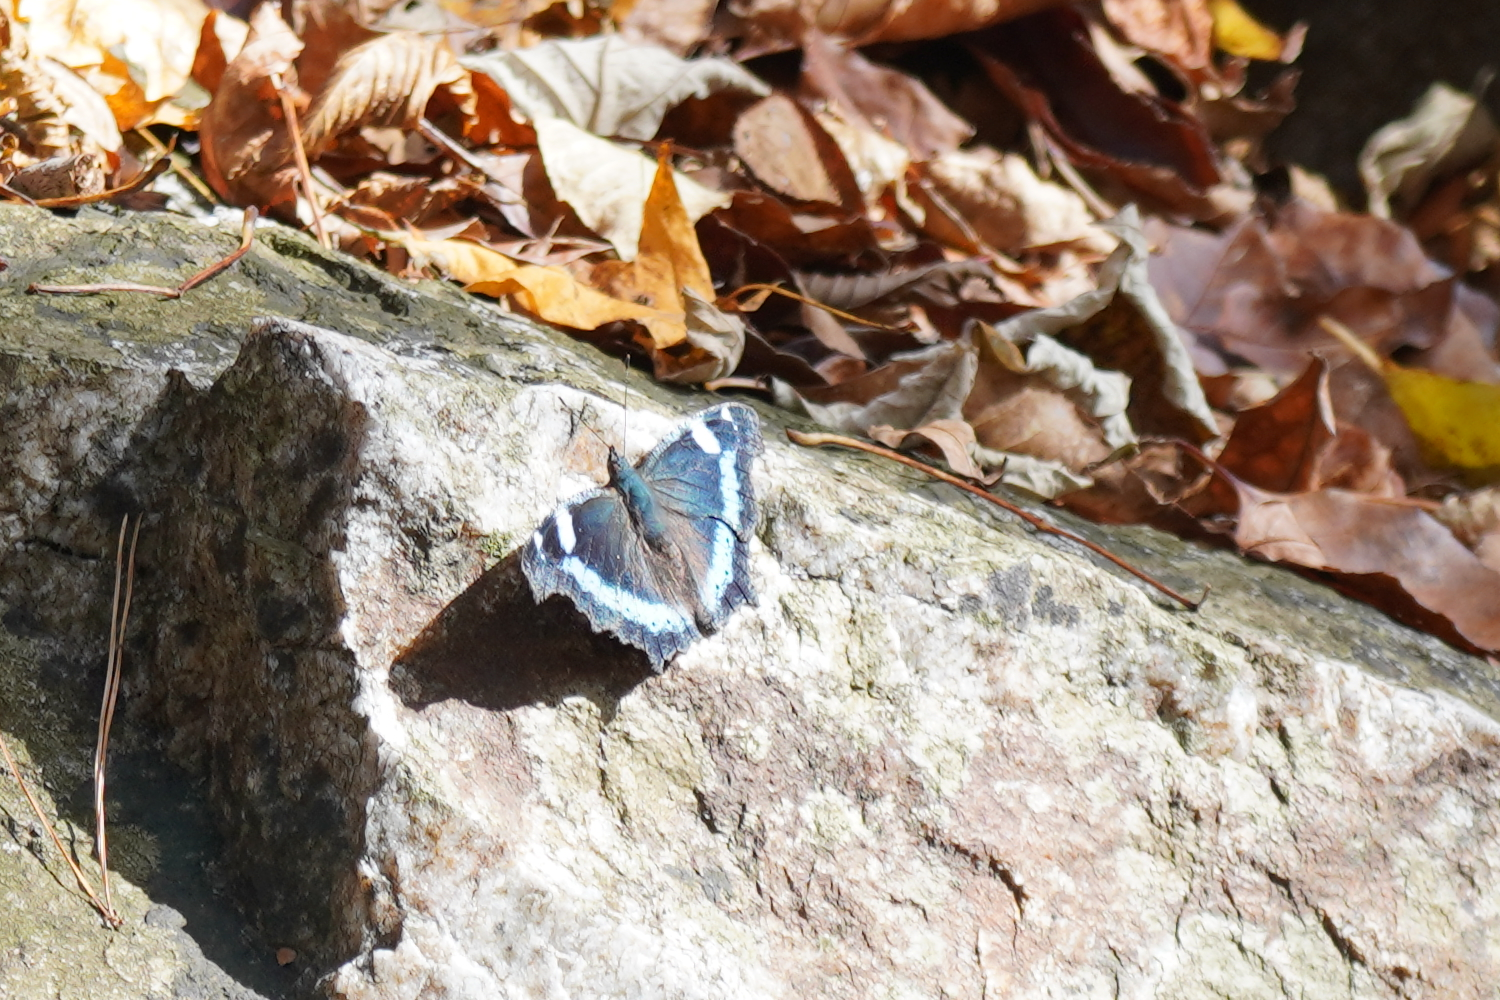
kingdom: Animalia
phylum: Arthropoda
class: Insecta
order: Lepidoptera
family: Nymphalidae
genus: Vanessa
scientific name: Vanessa Kaniska canace
